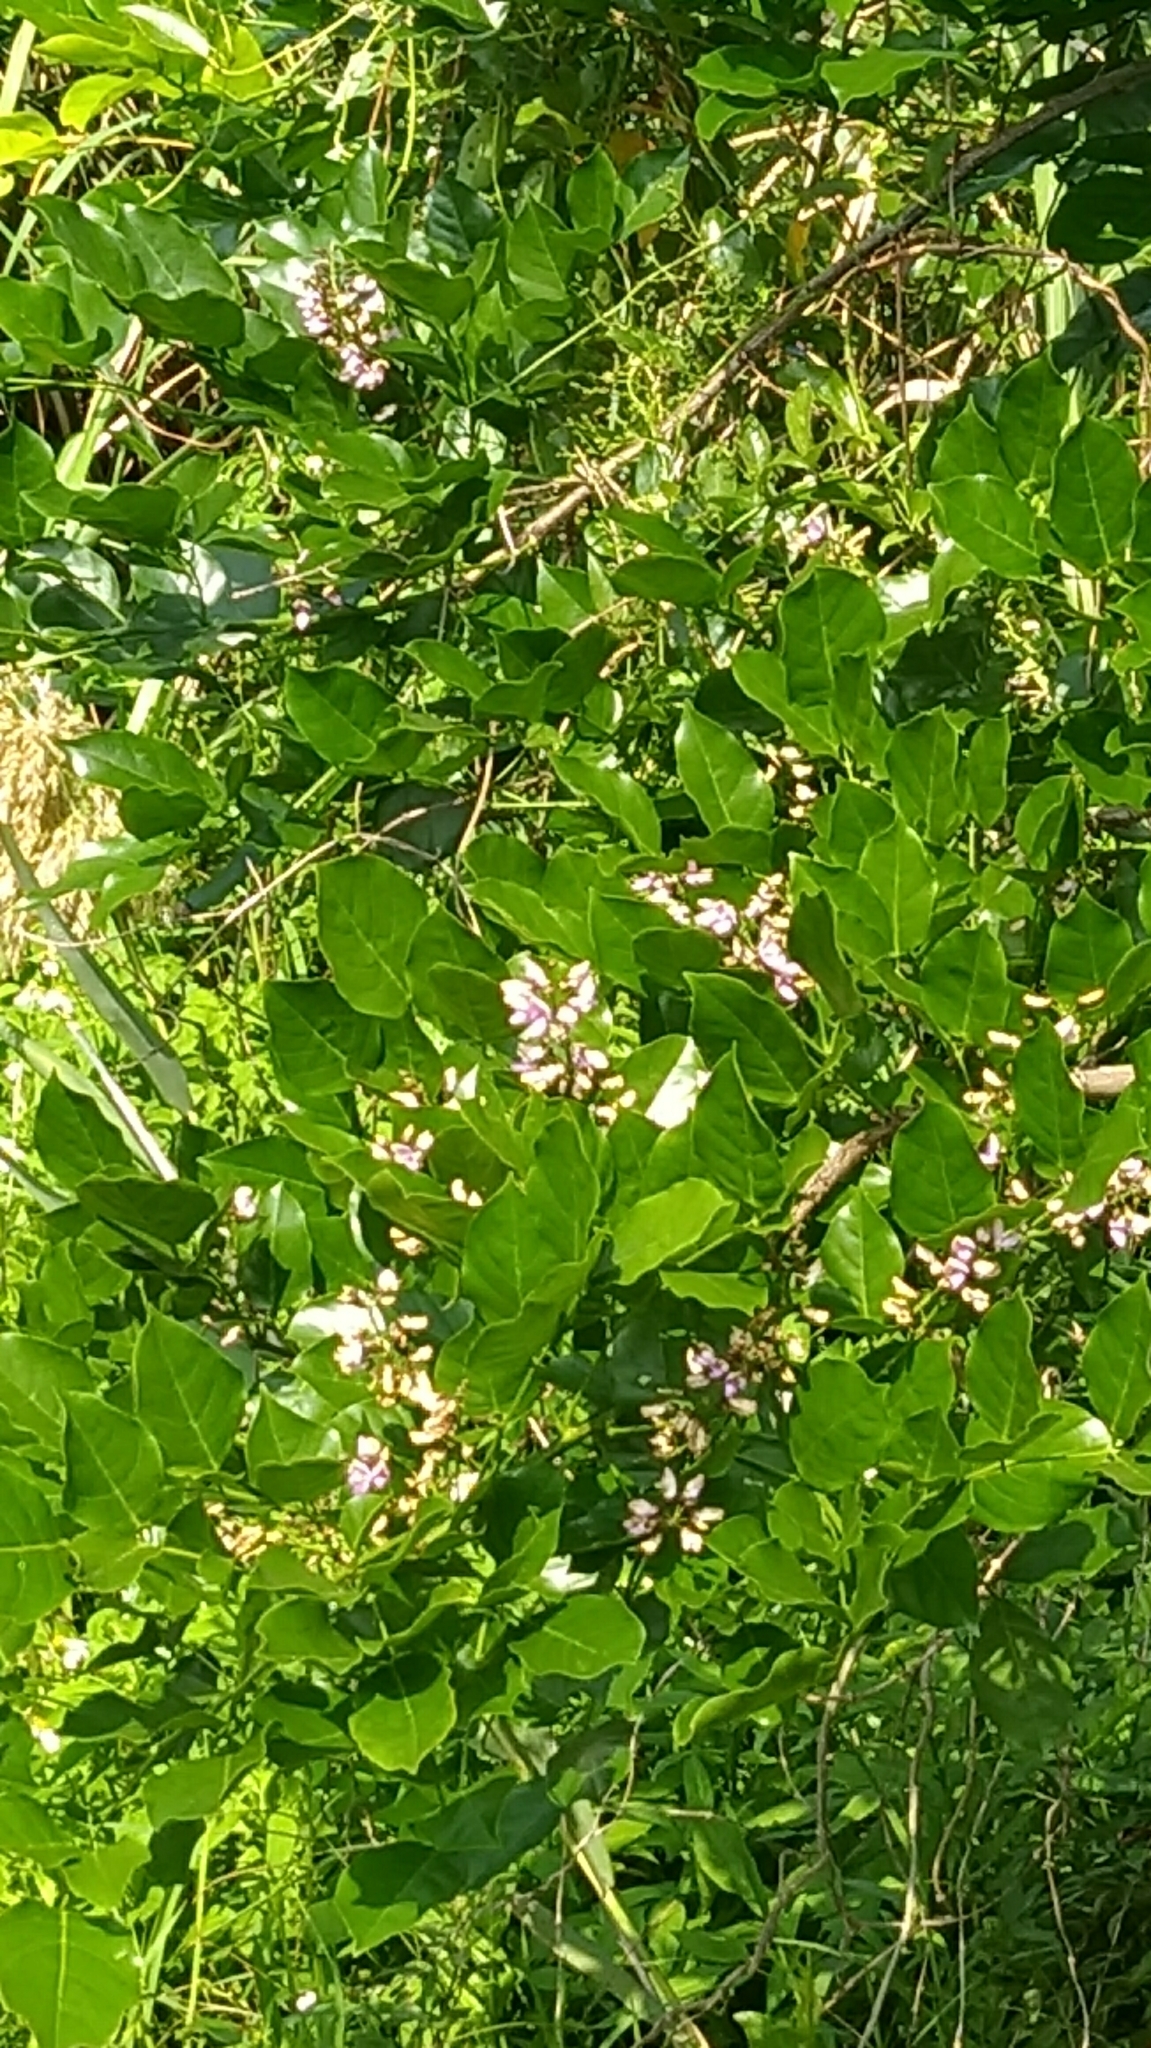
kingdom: Plantae
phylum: Tracheophyta
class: Magnoliopsida
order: Fabales
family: Fabaceae
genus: Pongamia
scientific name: Pongamia pinnata
